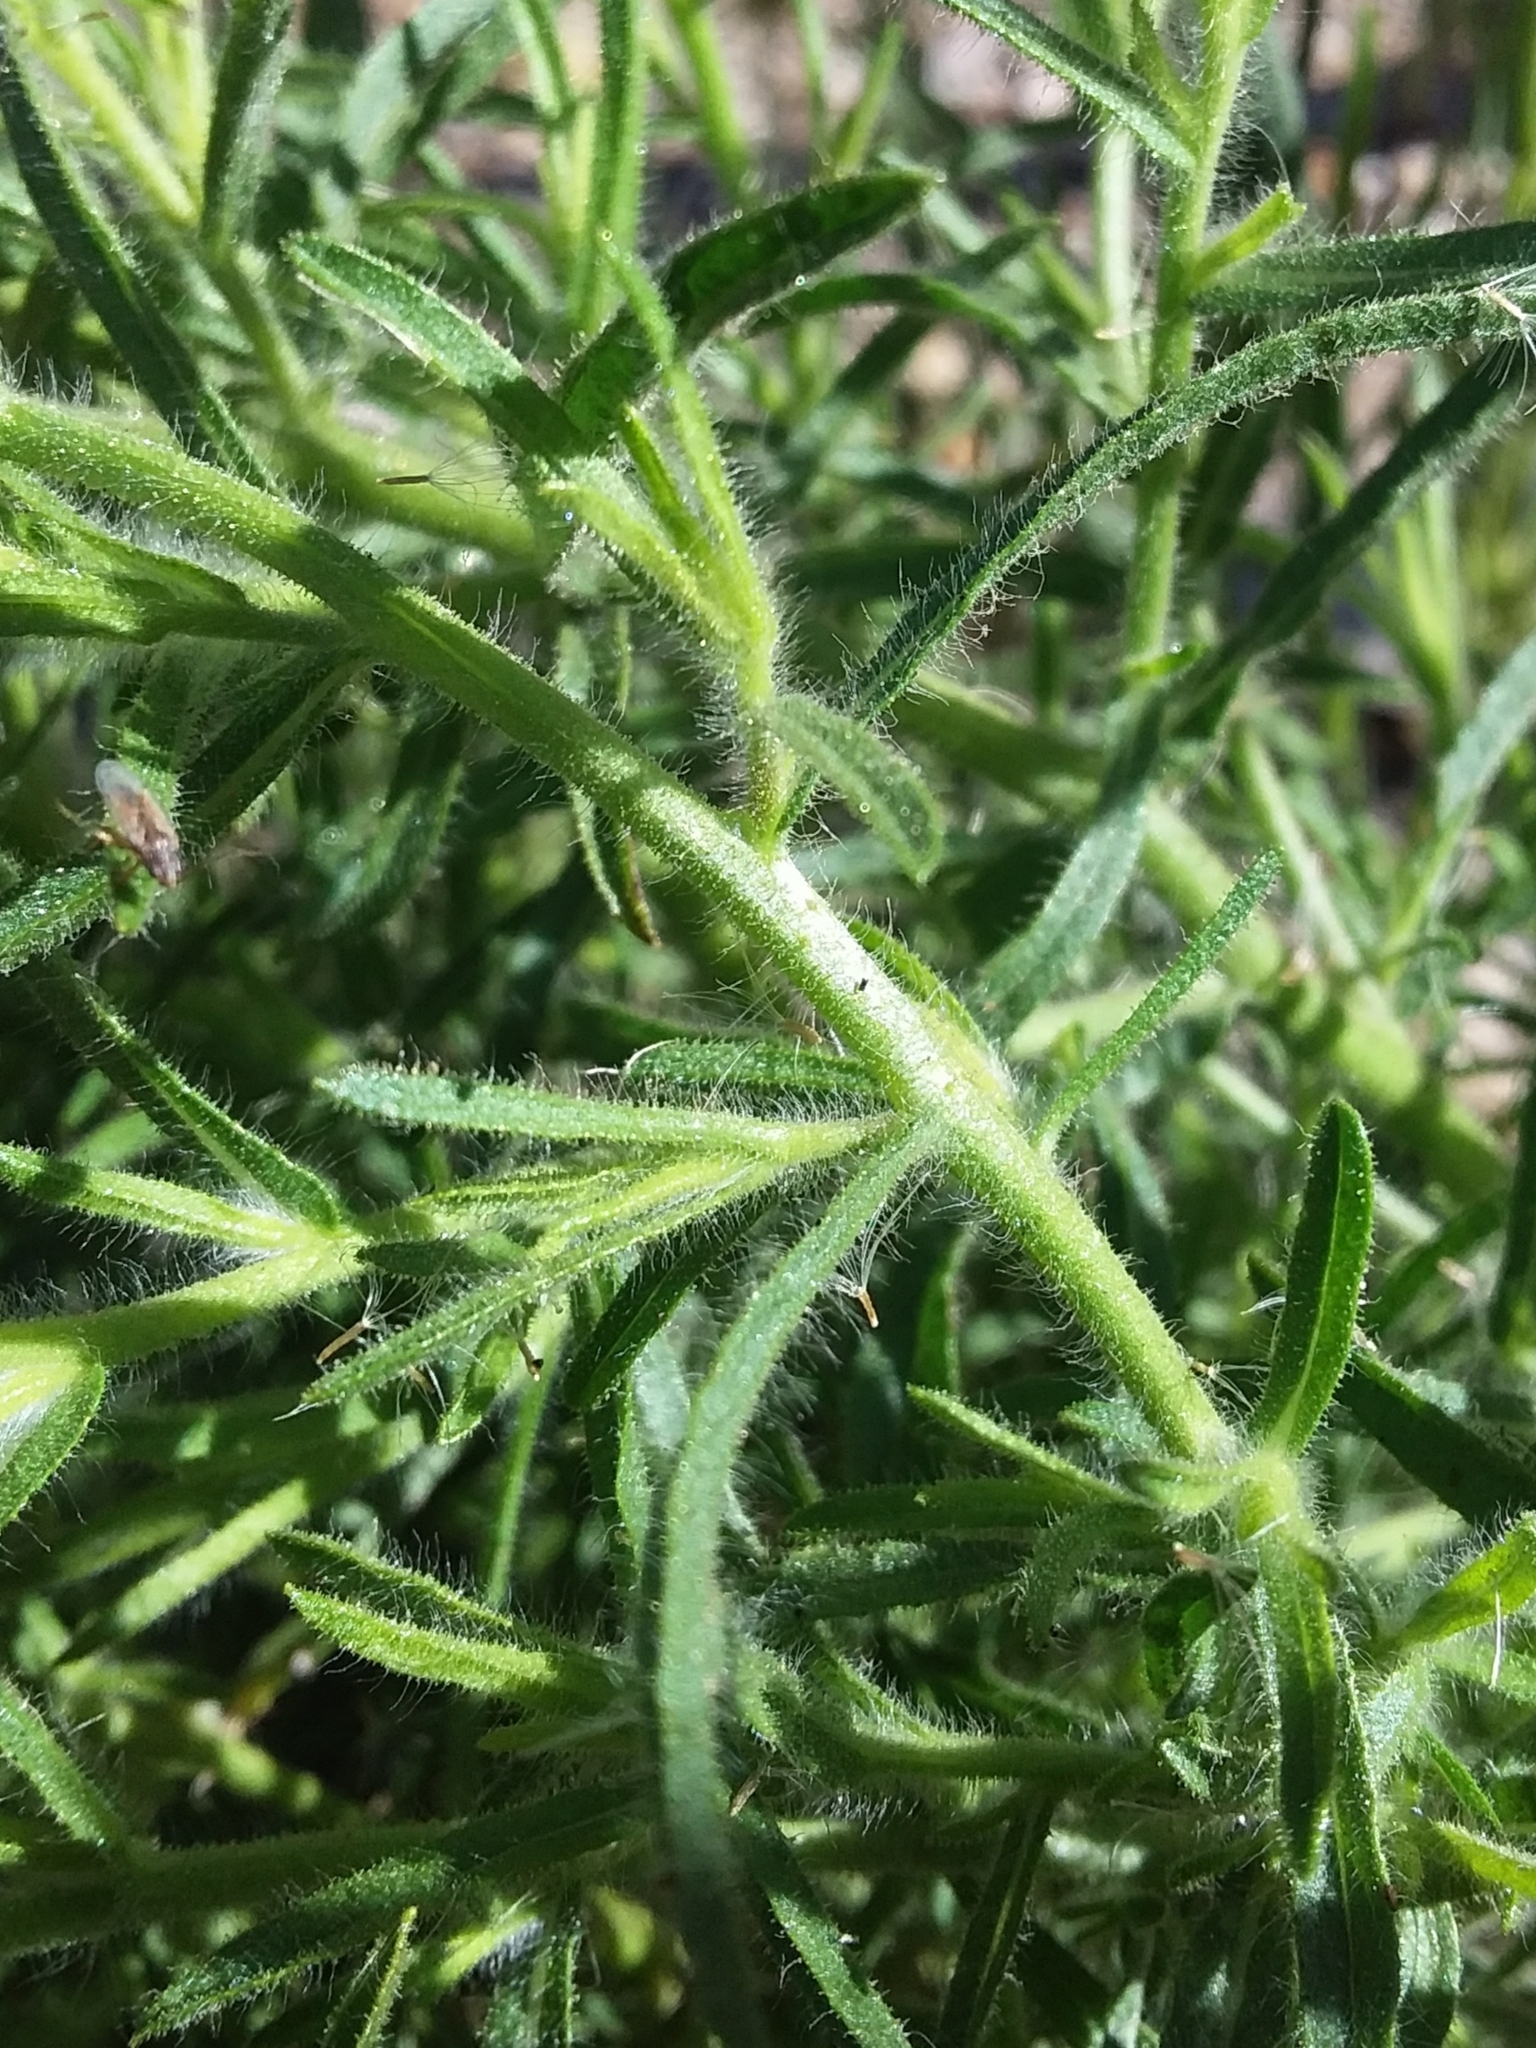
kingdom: Plantae
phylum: Tracheophyta
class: Magnoliopsida
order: Asterales
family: Asteraceae
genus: Dittrichia
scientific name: Dittrichia graveolens
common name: Stinking fleabane
